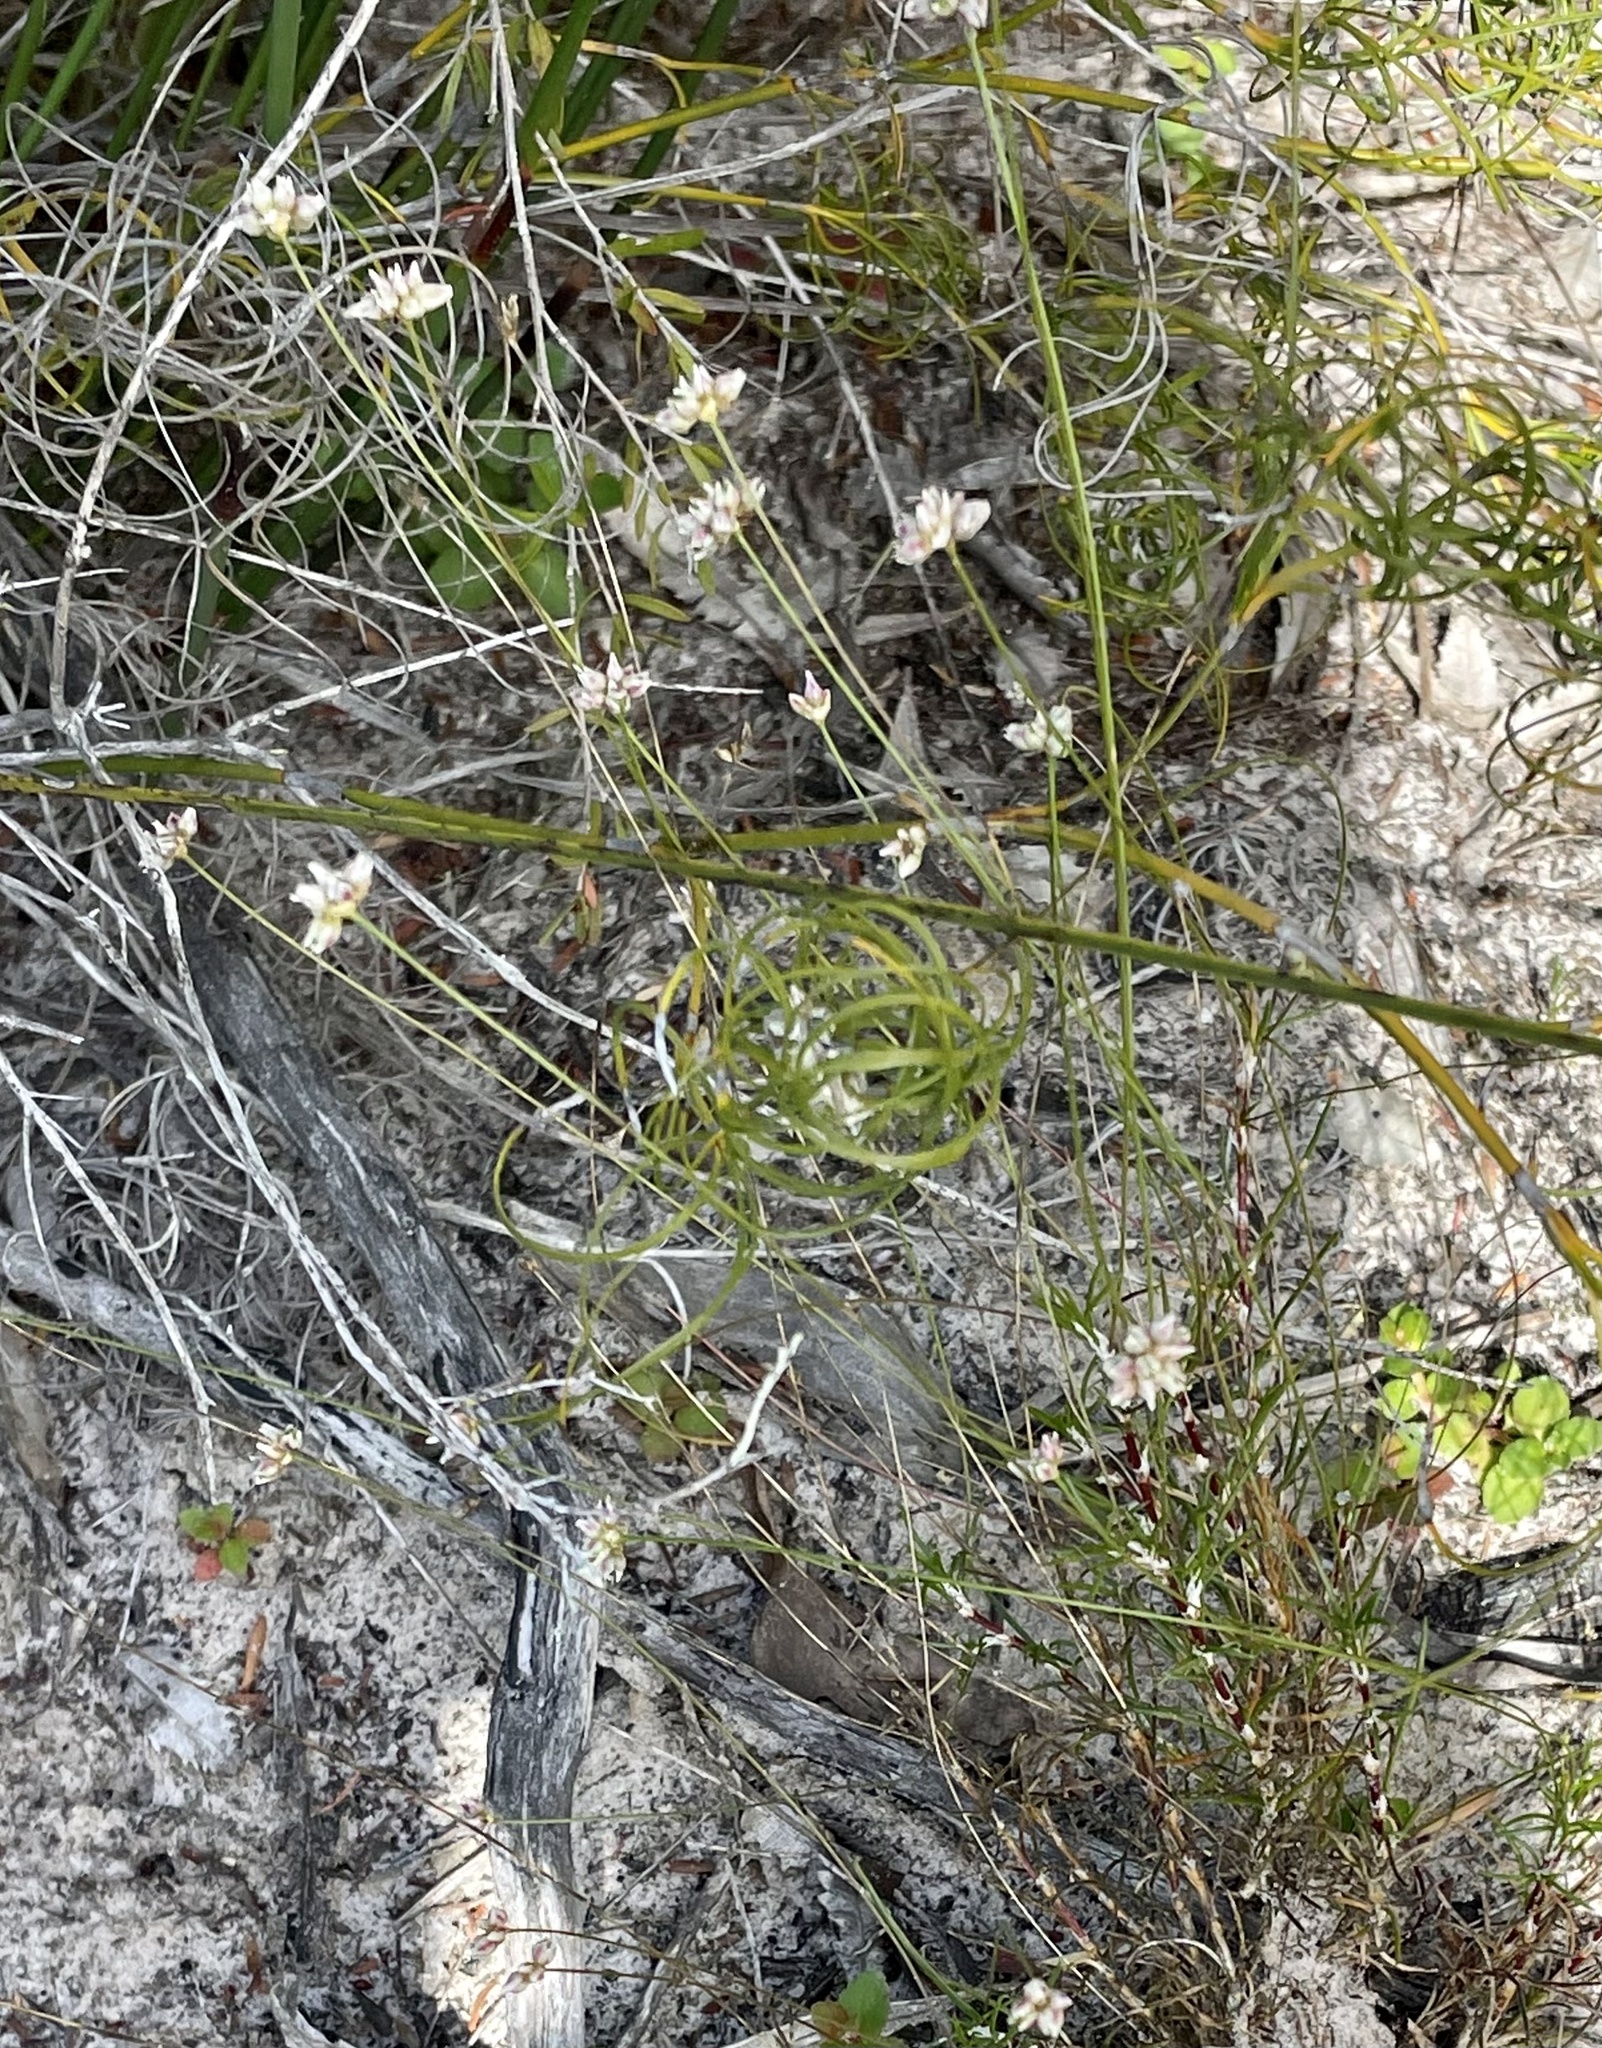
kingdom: Plantae
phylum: Tracheophyta
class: Liliopsida
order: Asparagales
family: Asparagaceae
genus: Laxmannia
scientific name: Laxmannia gracilis
